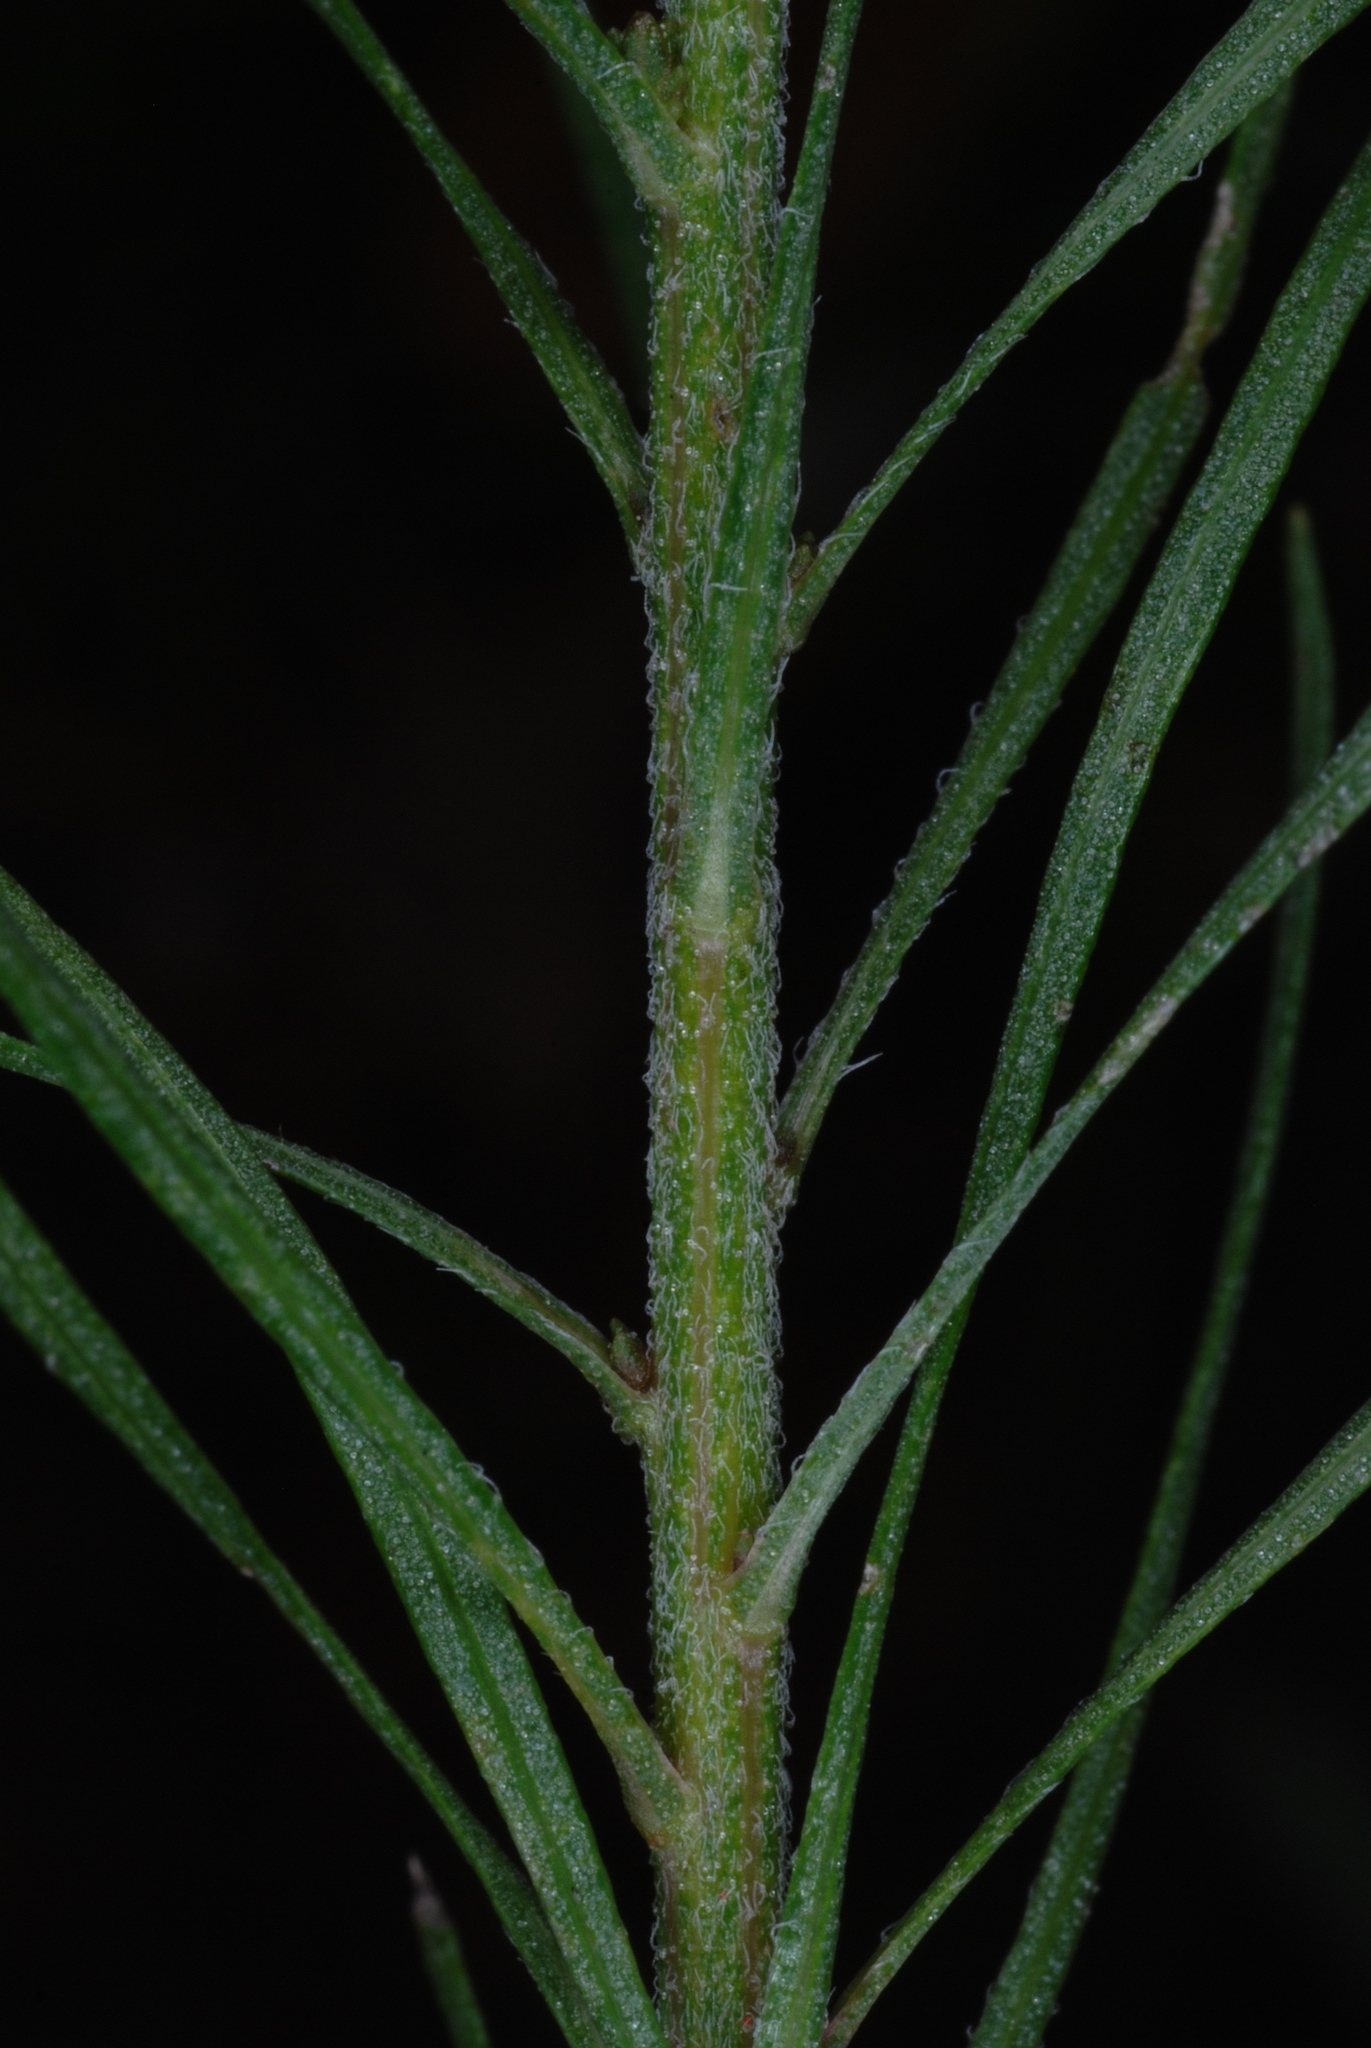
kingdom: Plantae
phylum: Tracheophyta
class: Magnoliopsida
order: Asterales
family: Asteraceae
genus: Liatris
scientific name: Liatris patens
